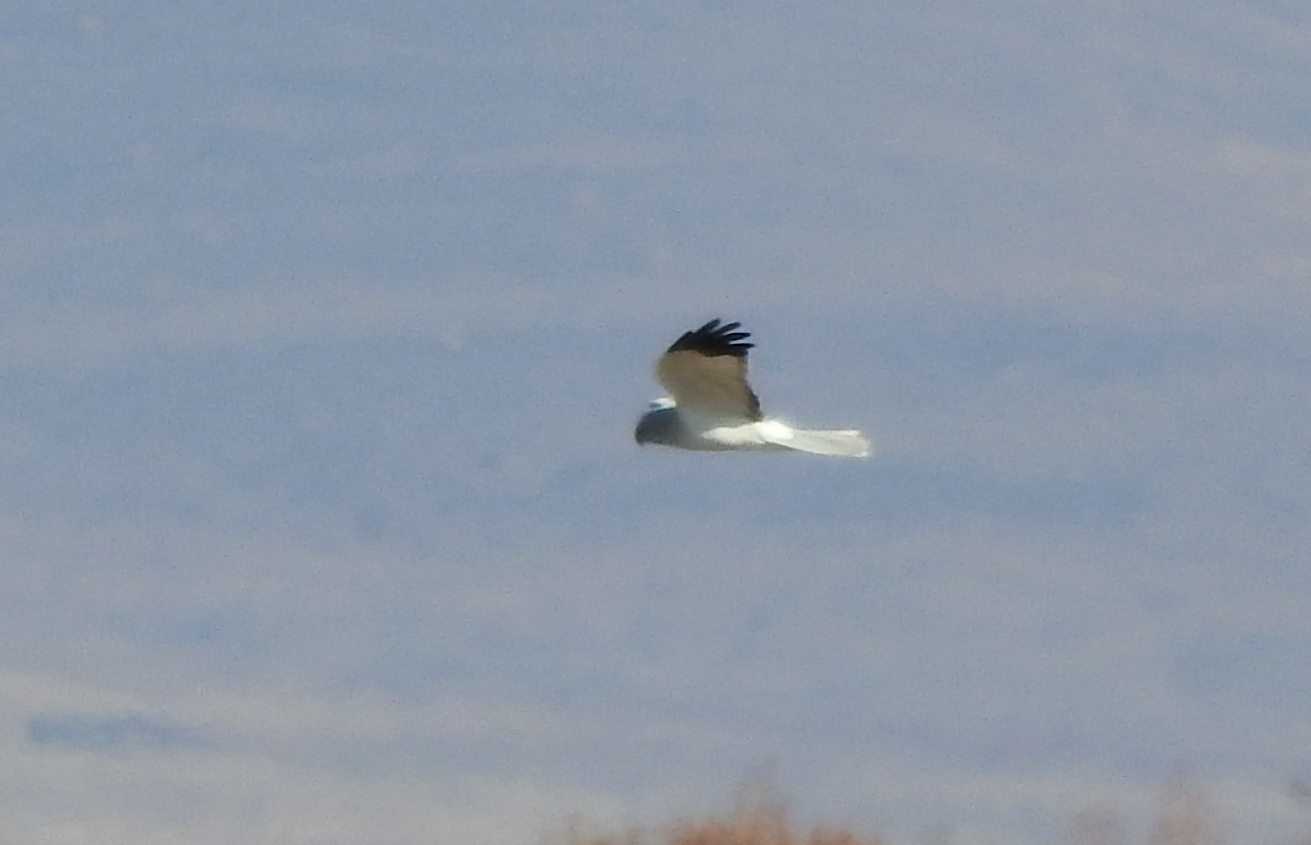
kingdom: Animalia
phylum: Chordata
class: Aves
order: Accipitriformes
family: Accipitridae
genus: Circus
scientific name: Circus cyaneus
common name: Hen harrier
